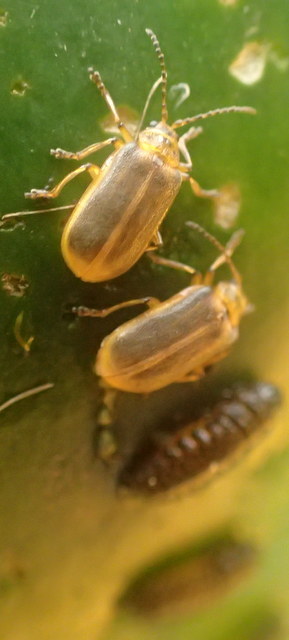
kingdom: Animalia
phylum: Arthropoda
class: Insecta
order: Coleoptera
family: Chrysomelidae
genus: Galerucella
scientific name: Galerucella nymphaeae
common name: Leaf beetle
